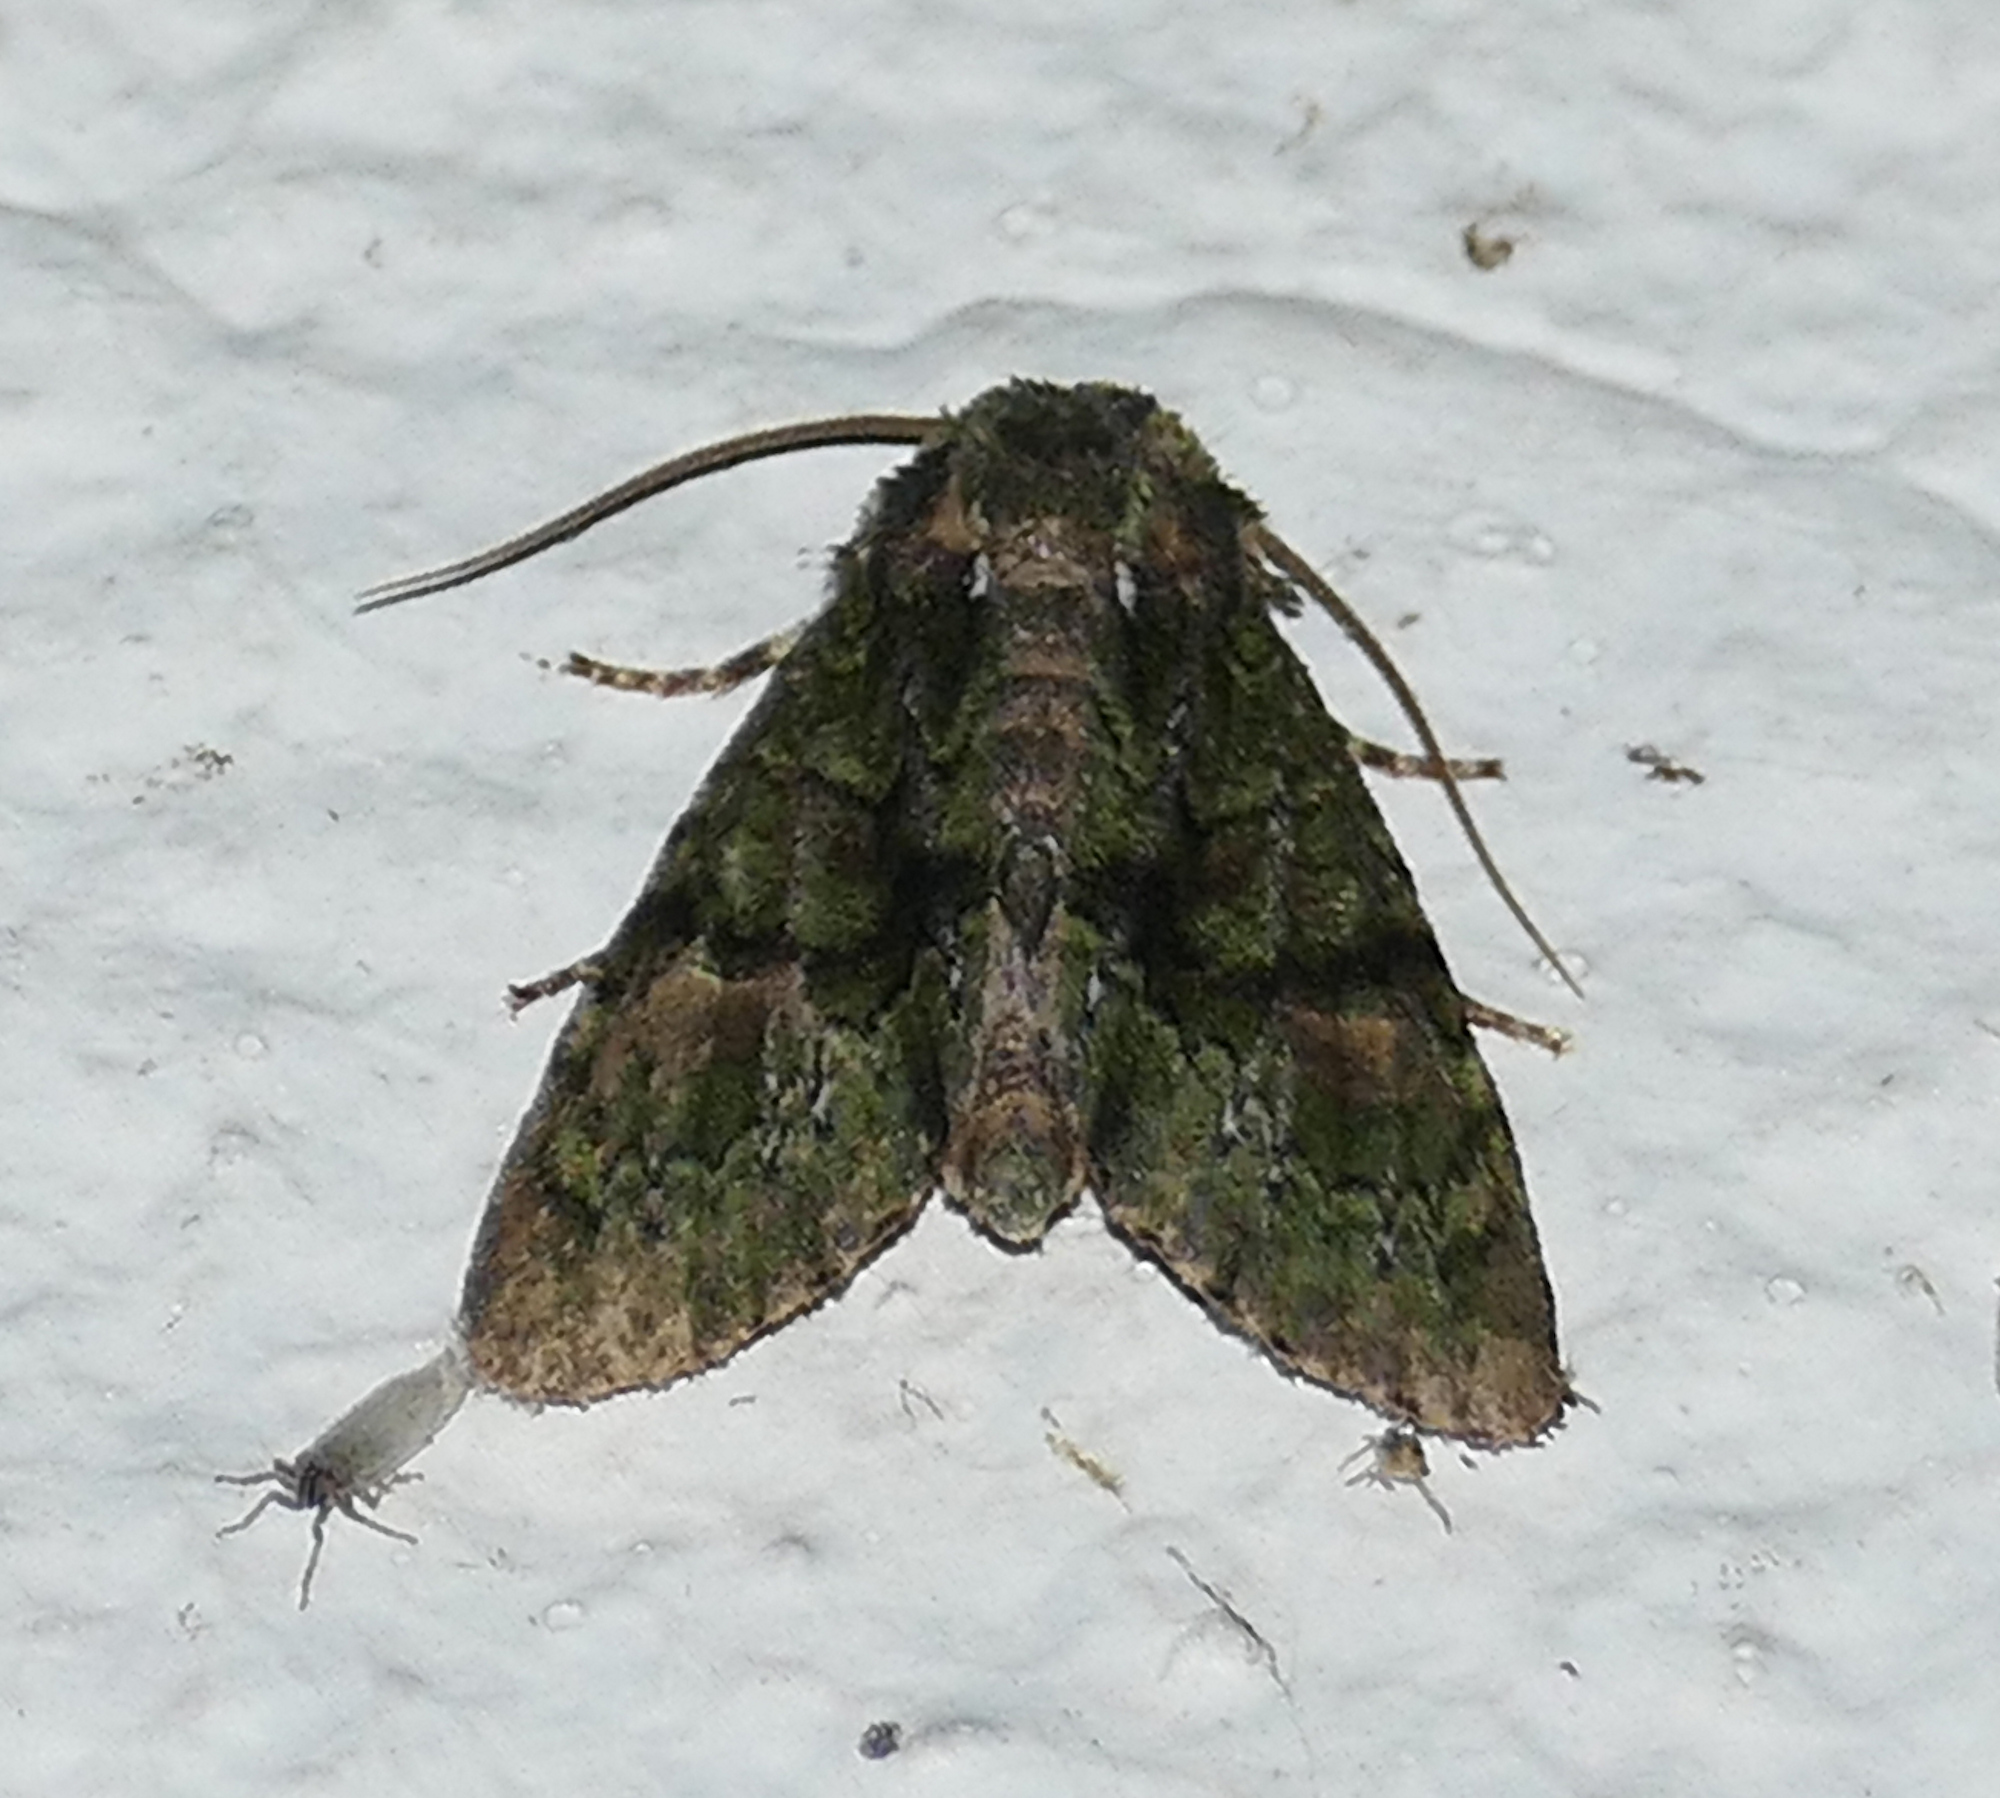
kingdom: Animalia
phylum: Arthropoda
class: Insecta
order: Lepidoptera
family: Noctuidae
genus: Phosphila
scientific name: Phosphila miselioides
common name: Spotted phosphila moth
